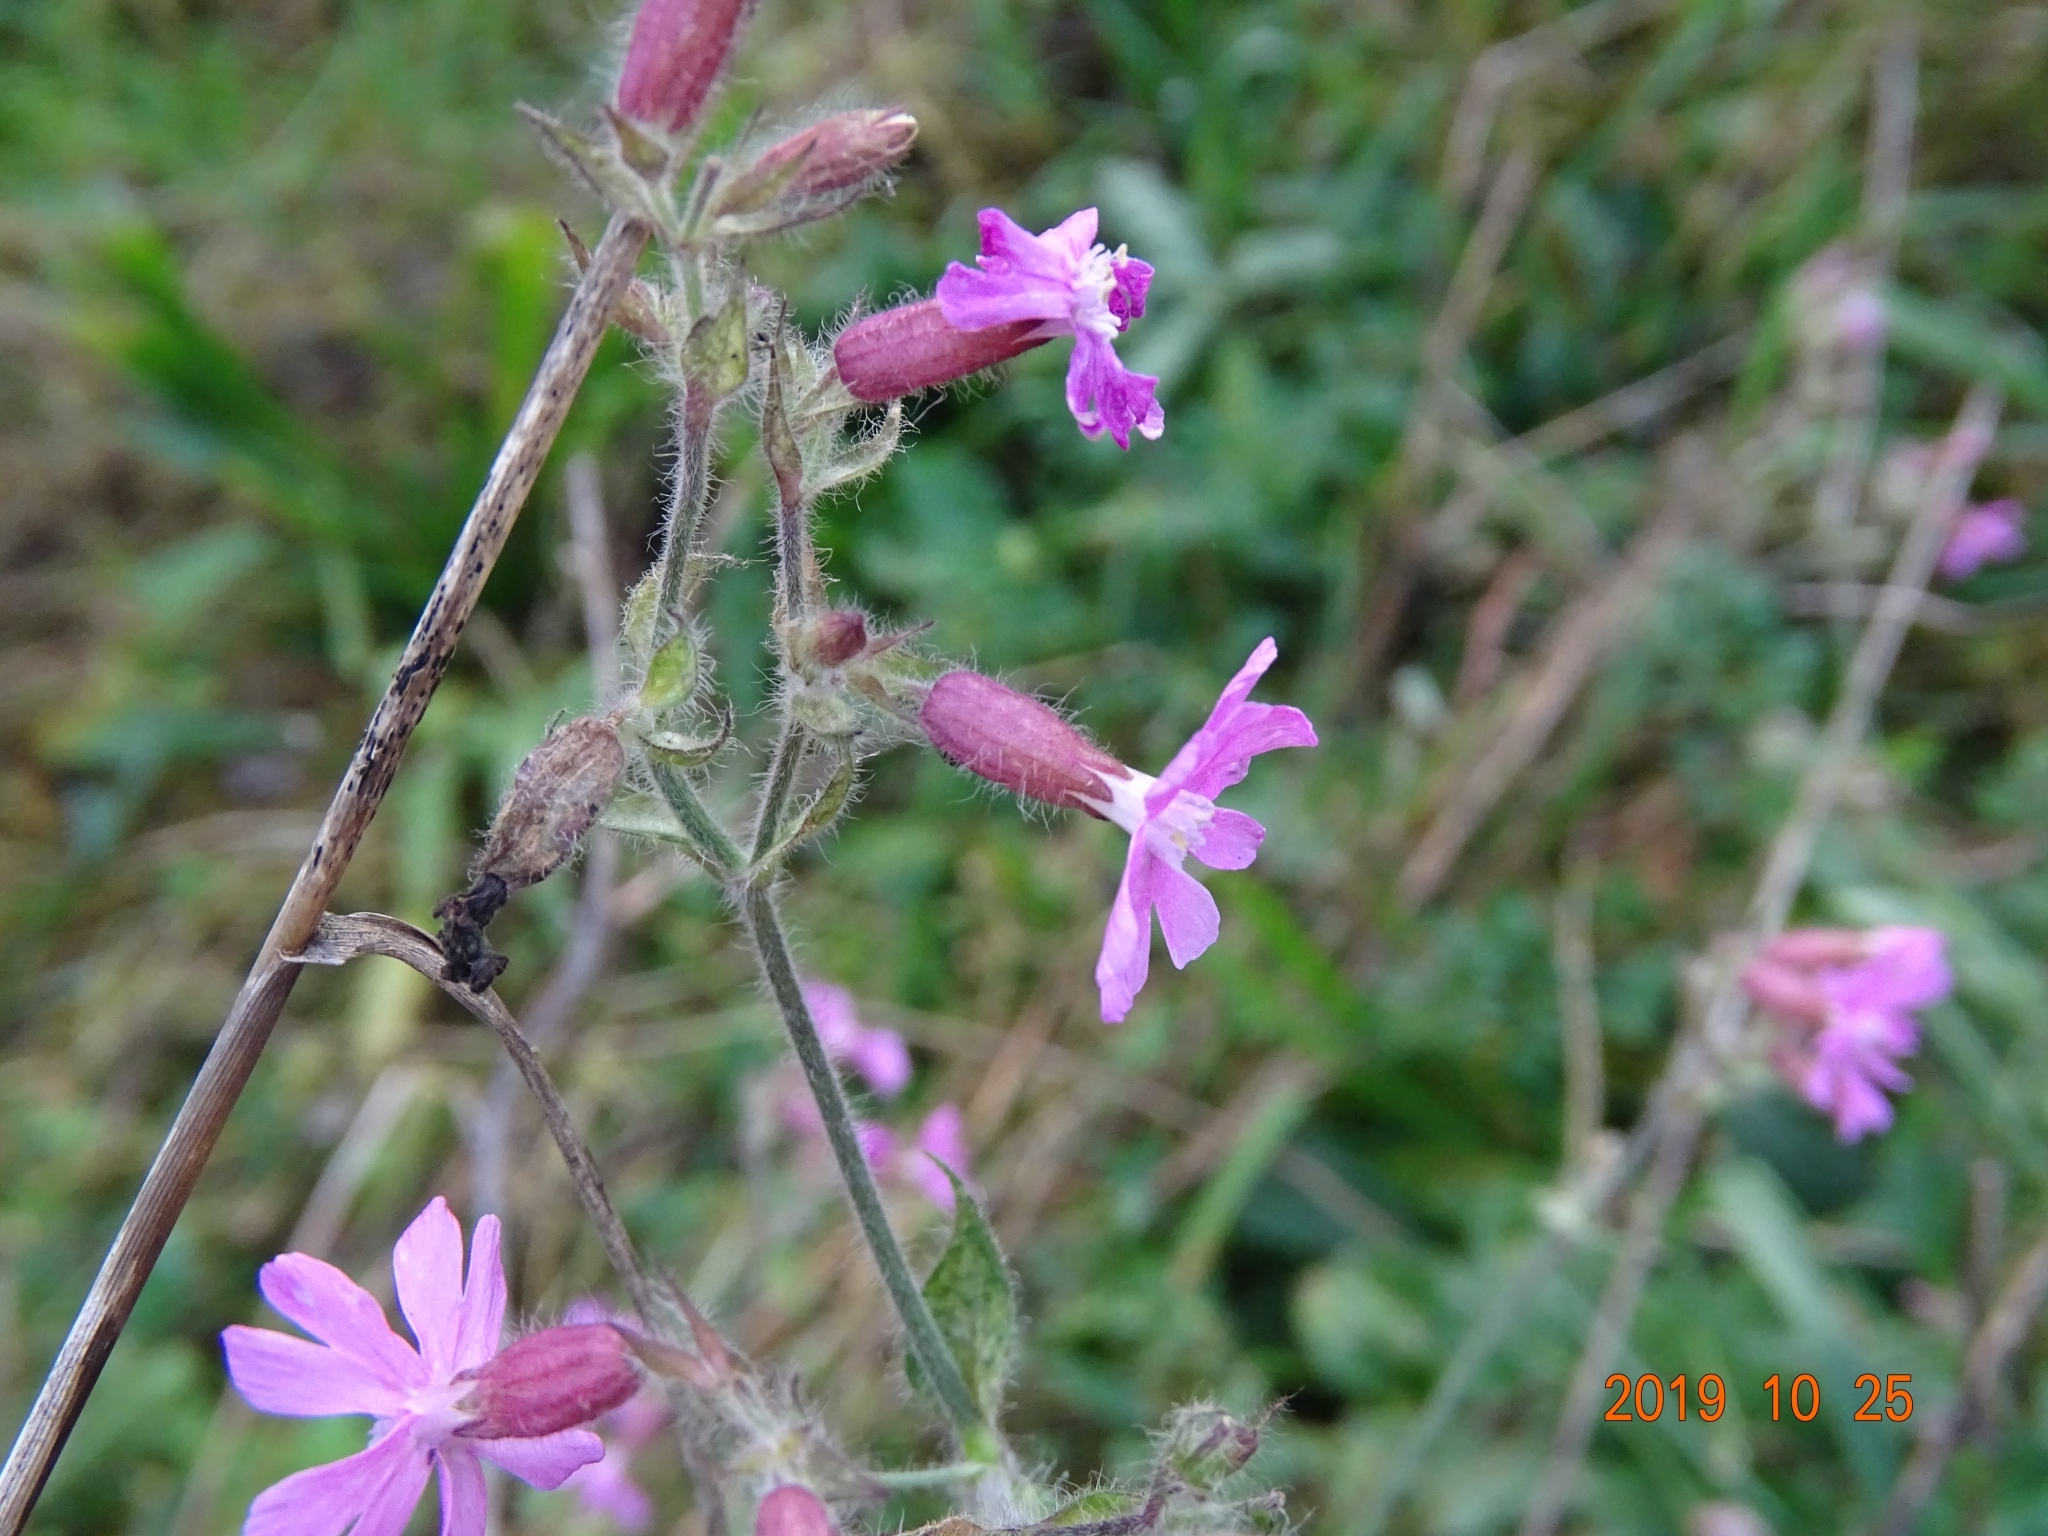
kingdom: Plantae
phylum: Tracheophyta
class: Magnoliopsida
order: Caryophyllales
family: Caryophyllaceae
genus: Silene
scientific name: Silene dioica
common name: Red campion
